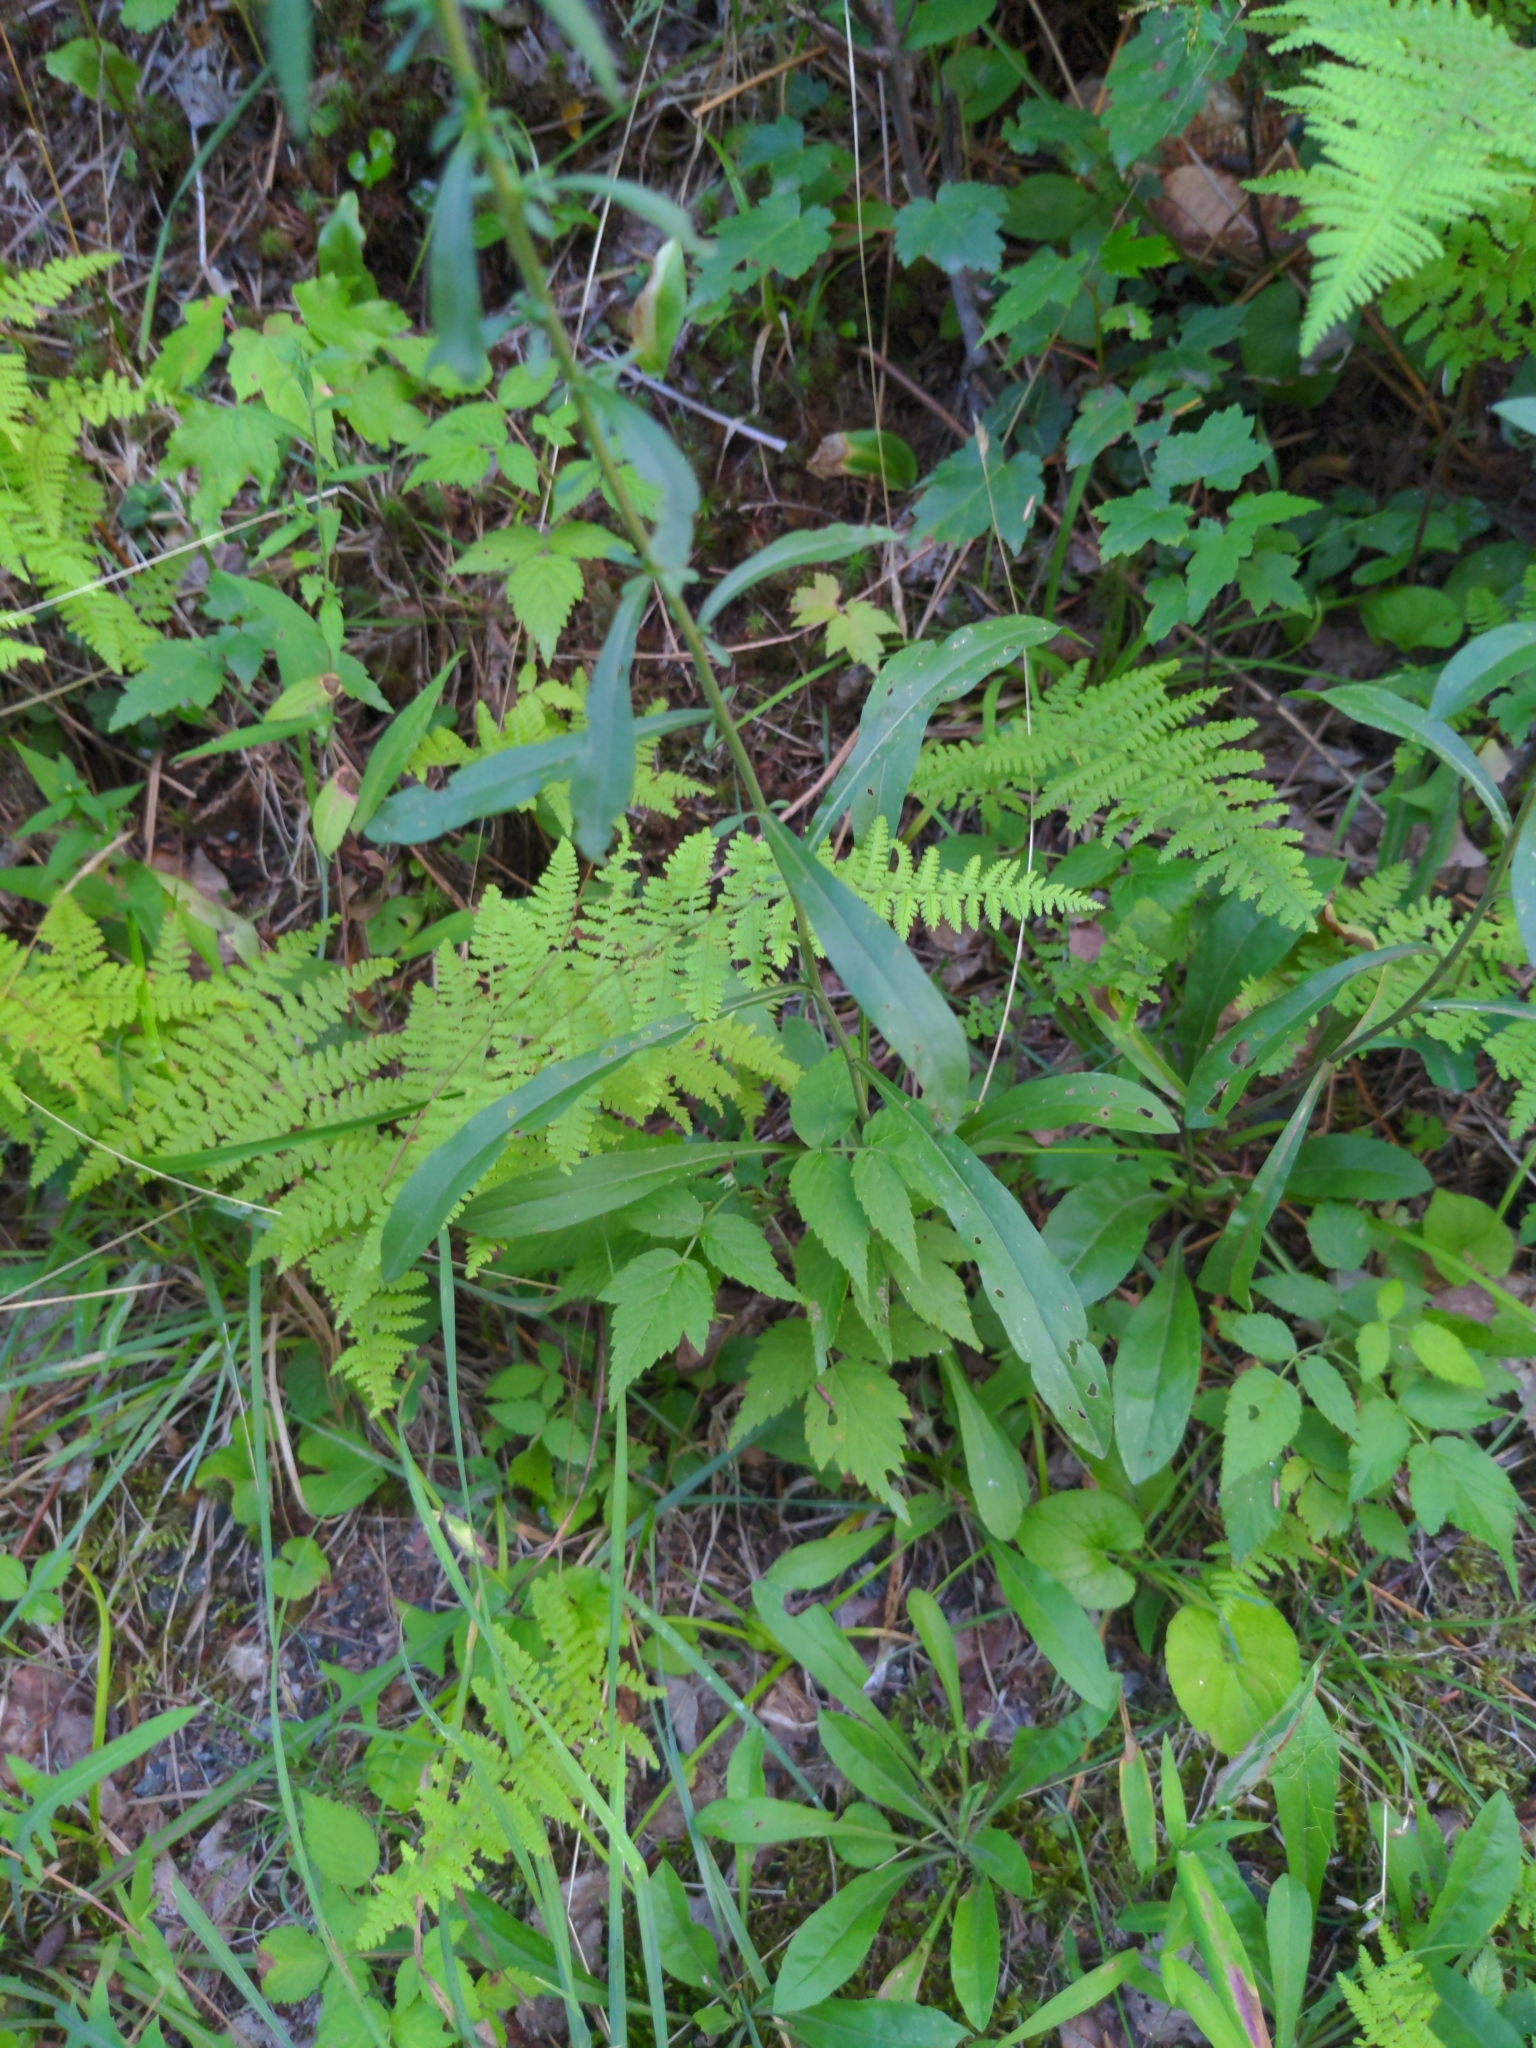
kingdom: Plantae
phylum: Tracheophyta
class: Magnoliopsida
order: Asterales
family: Asteraceae
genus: Solidago
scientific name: Solidago juncea
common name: Early goldenrod
